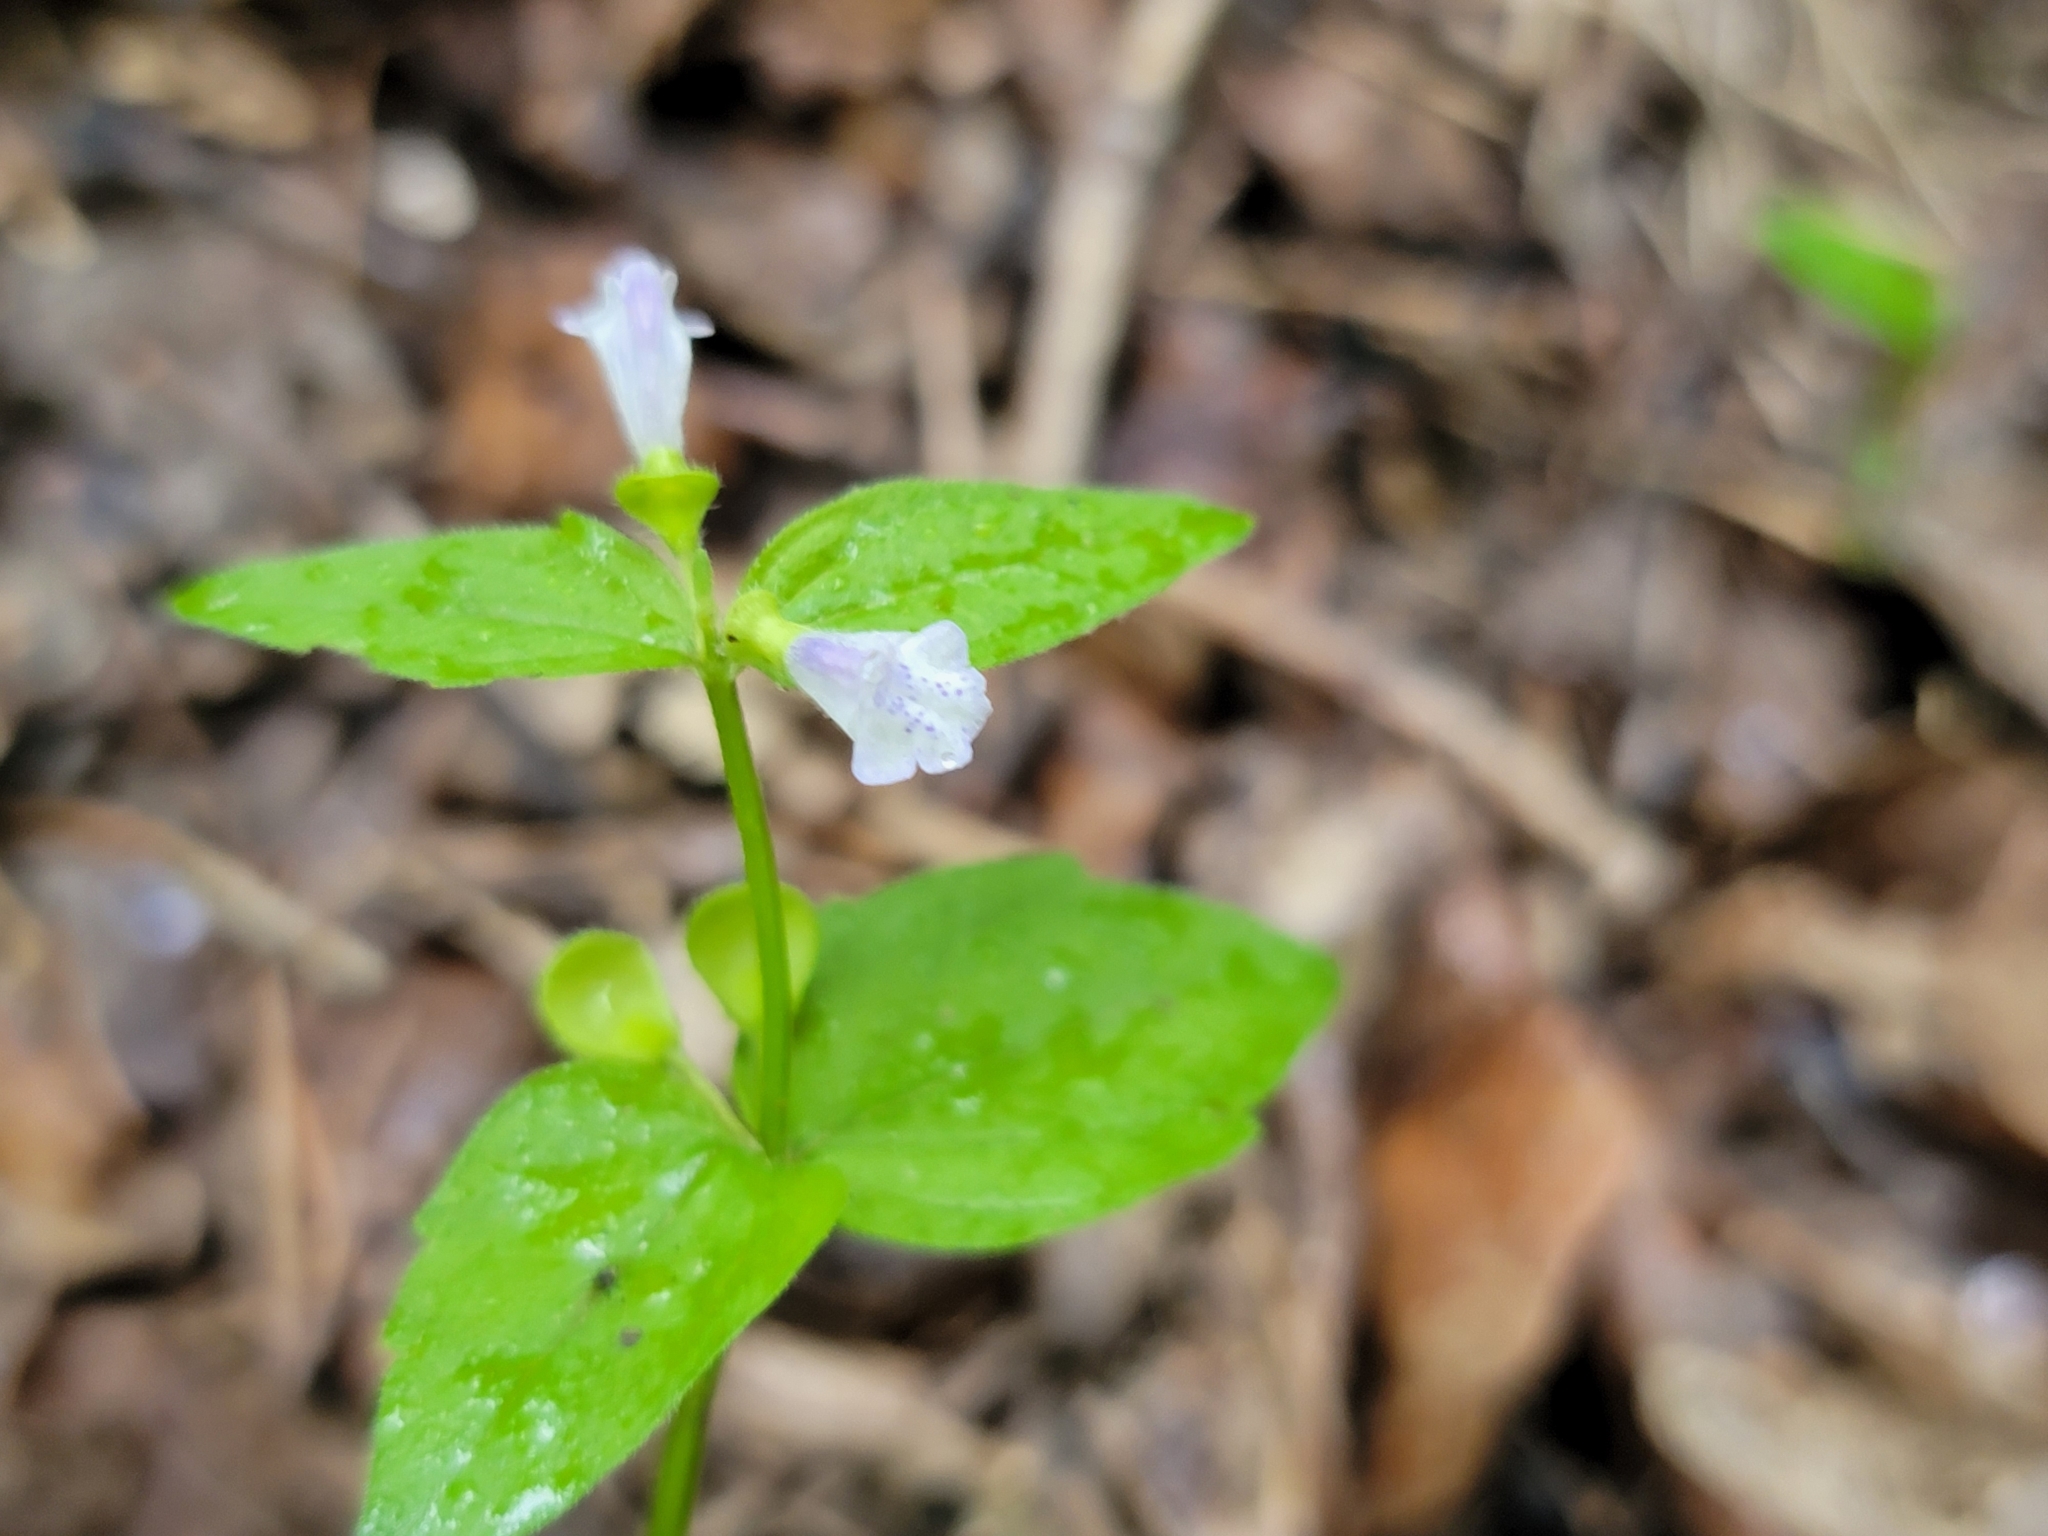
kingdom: Plantae
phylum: Tracheophyta
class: Magnoliopsida
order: Lamiales
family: Lamiaceae
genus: Scutellaria
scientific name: Scutellaria nervosa
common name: Bottomland skullcap
